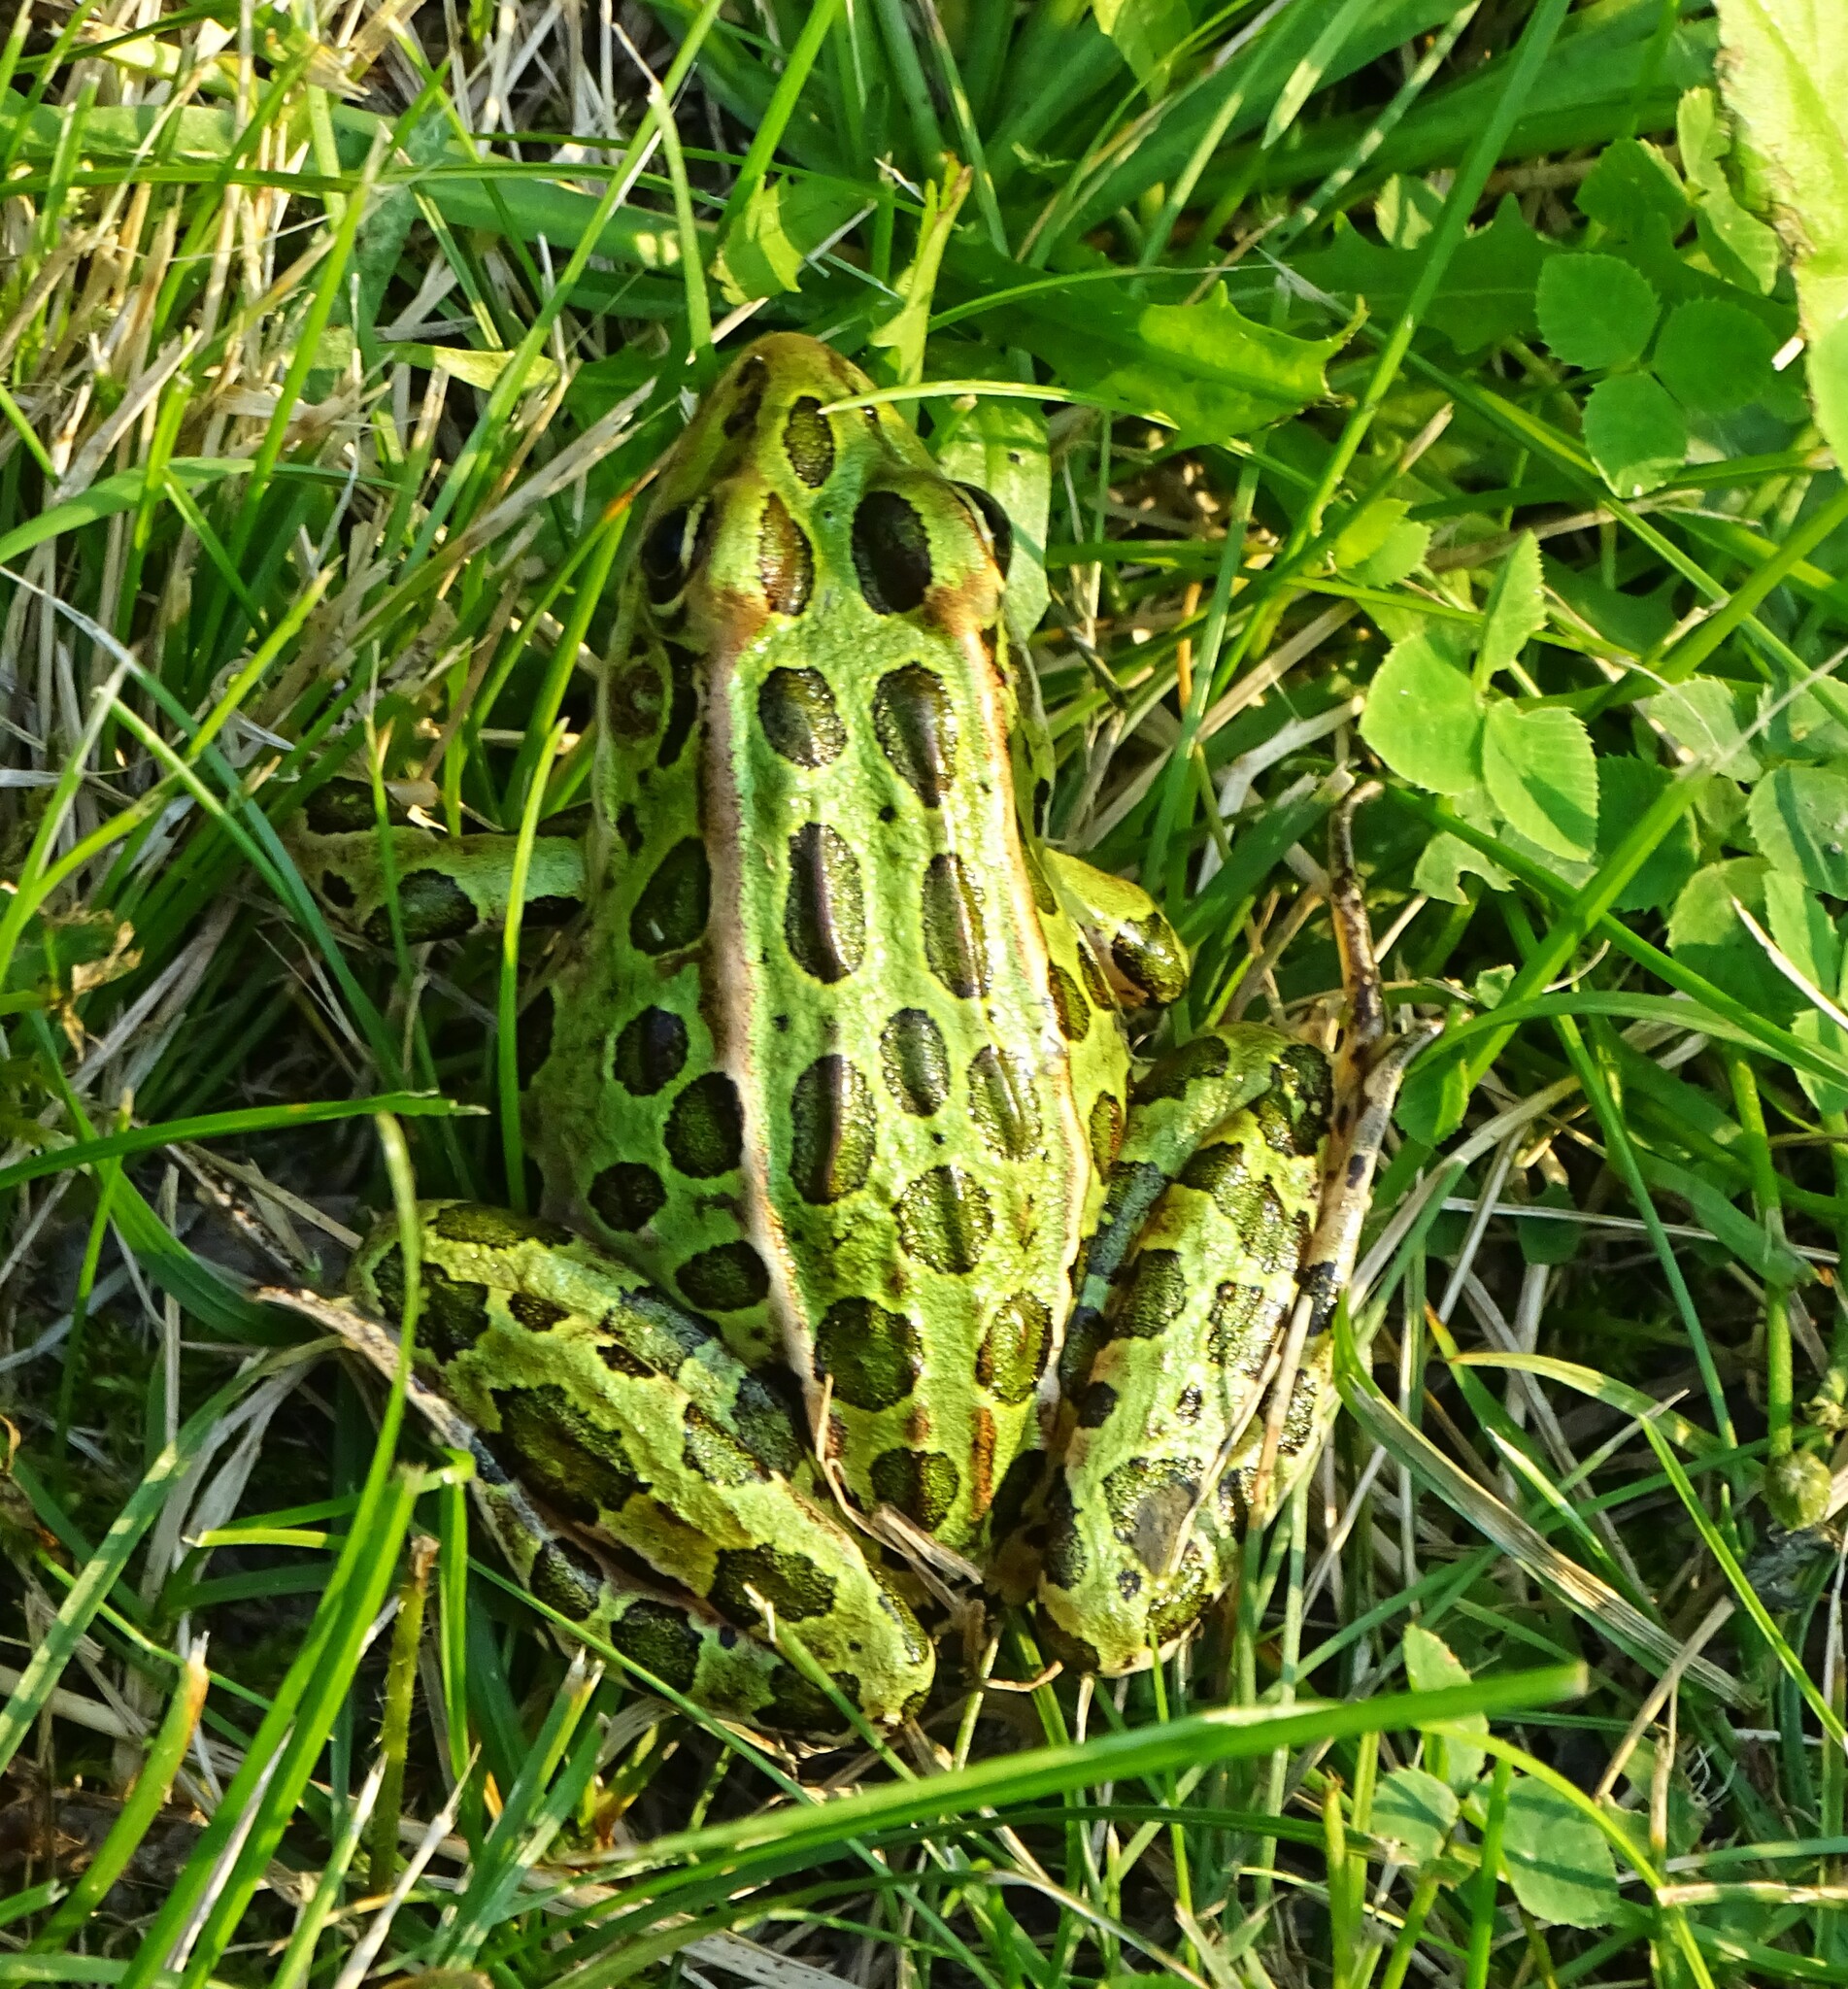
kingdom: Animalia
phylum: Chordata
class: Amphibia
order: Anura
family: Ranidae
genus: Lithobates
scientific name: Lithobates pipiens
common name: Northern leopard frog
